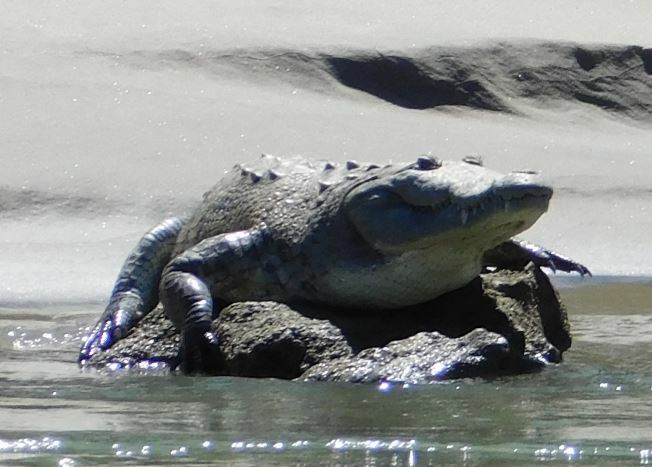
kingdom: Animalia
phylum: Chordata
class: Crocodylia
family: Crocodylidae
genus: Crocodylus
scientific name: Crocodylus moreletii
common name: Morelet's crocodile
